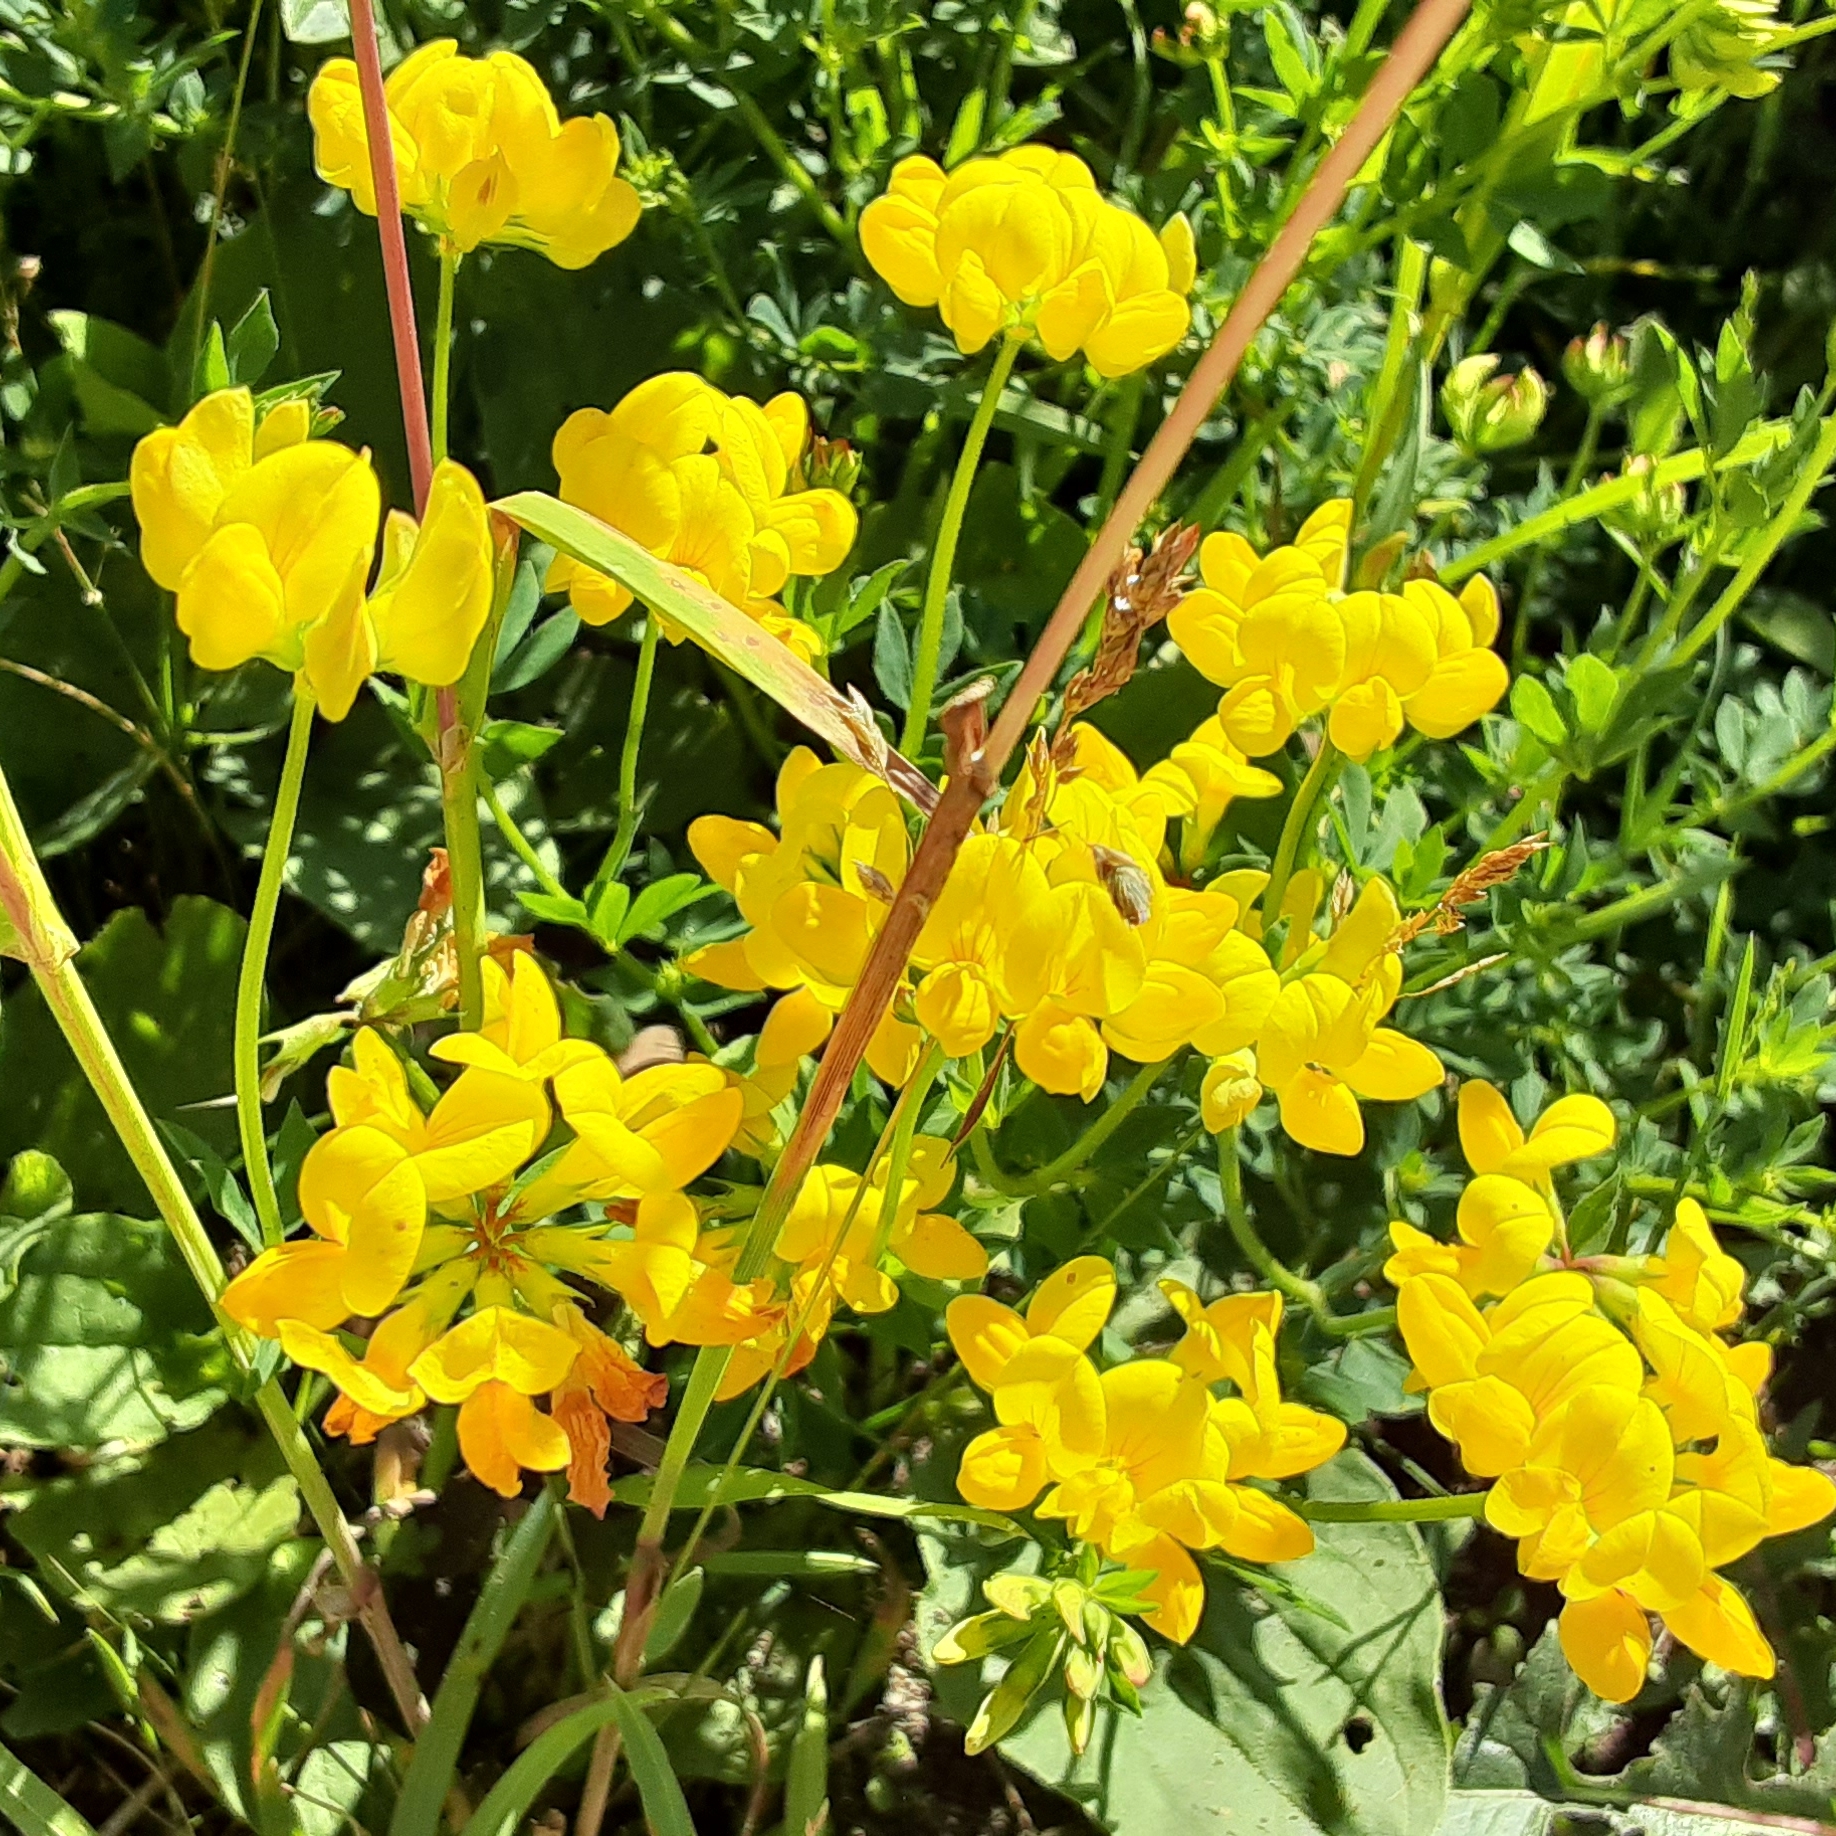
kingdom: Plantae
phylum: Tracheophyta
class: Magnoliopsida
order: Fabales
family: Fabaceae
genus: Lotus
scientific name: Lotus corniculatus
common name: Common bird's-foot-trefoil
